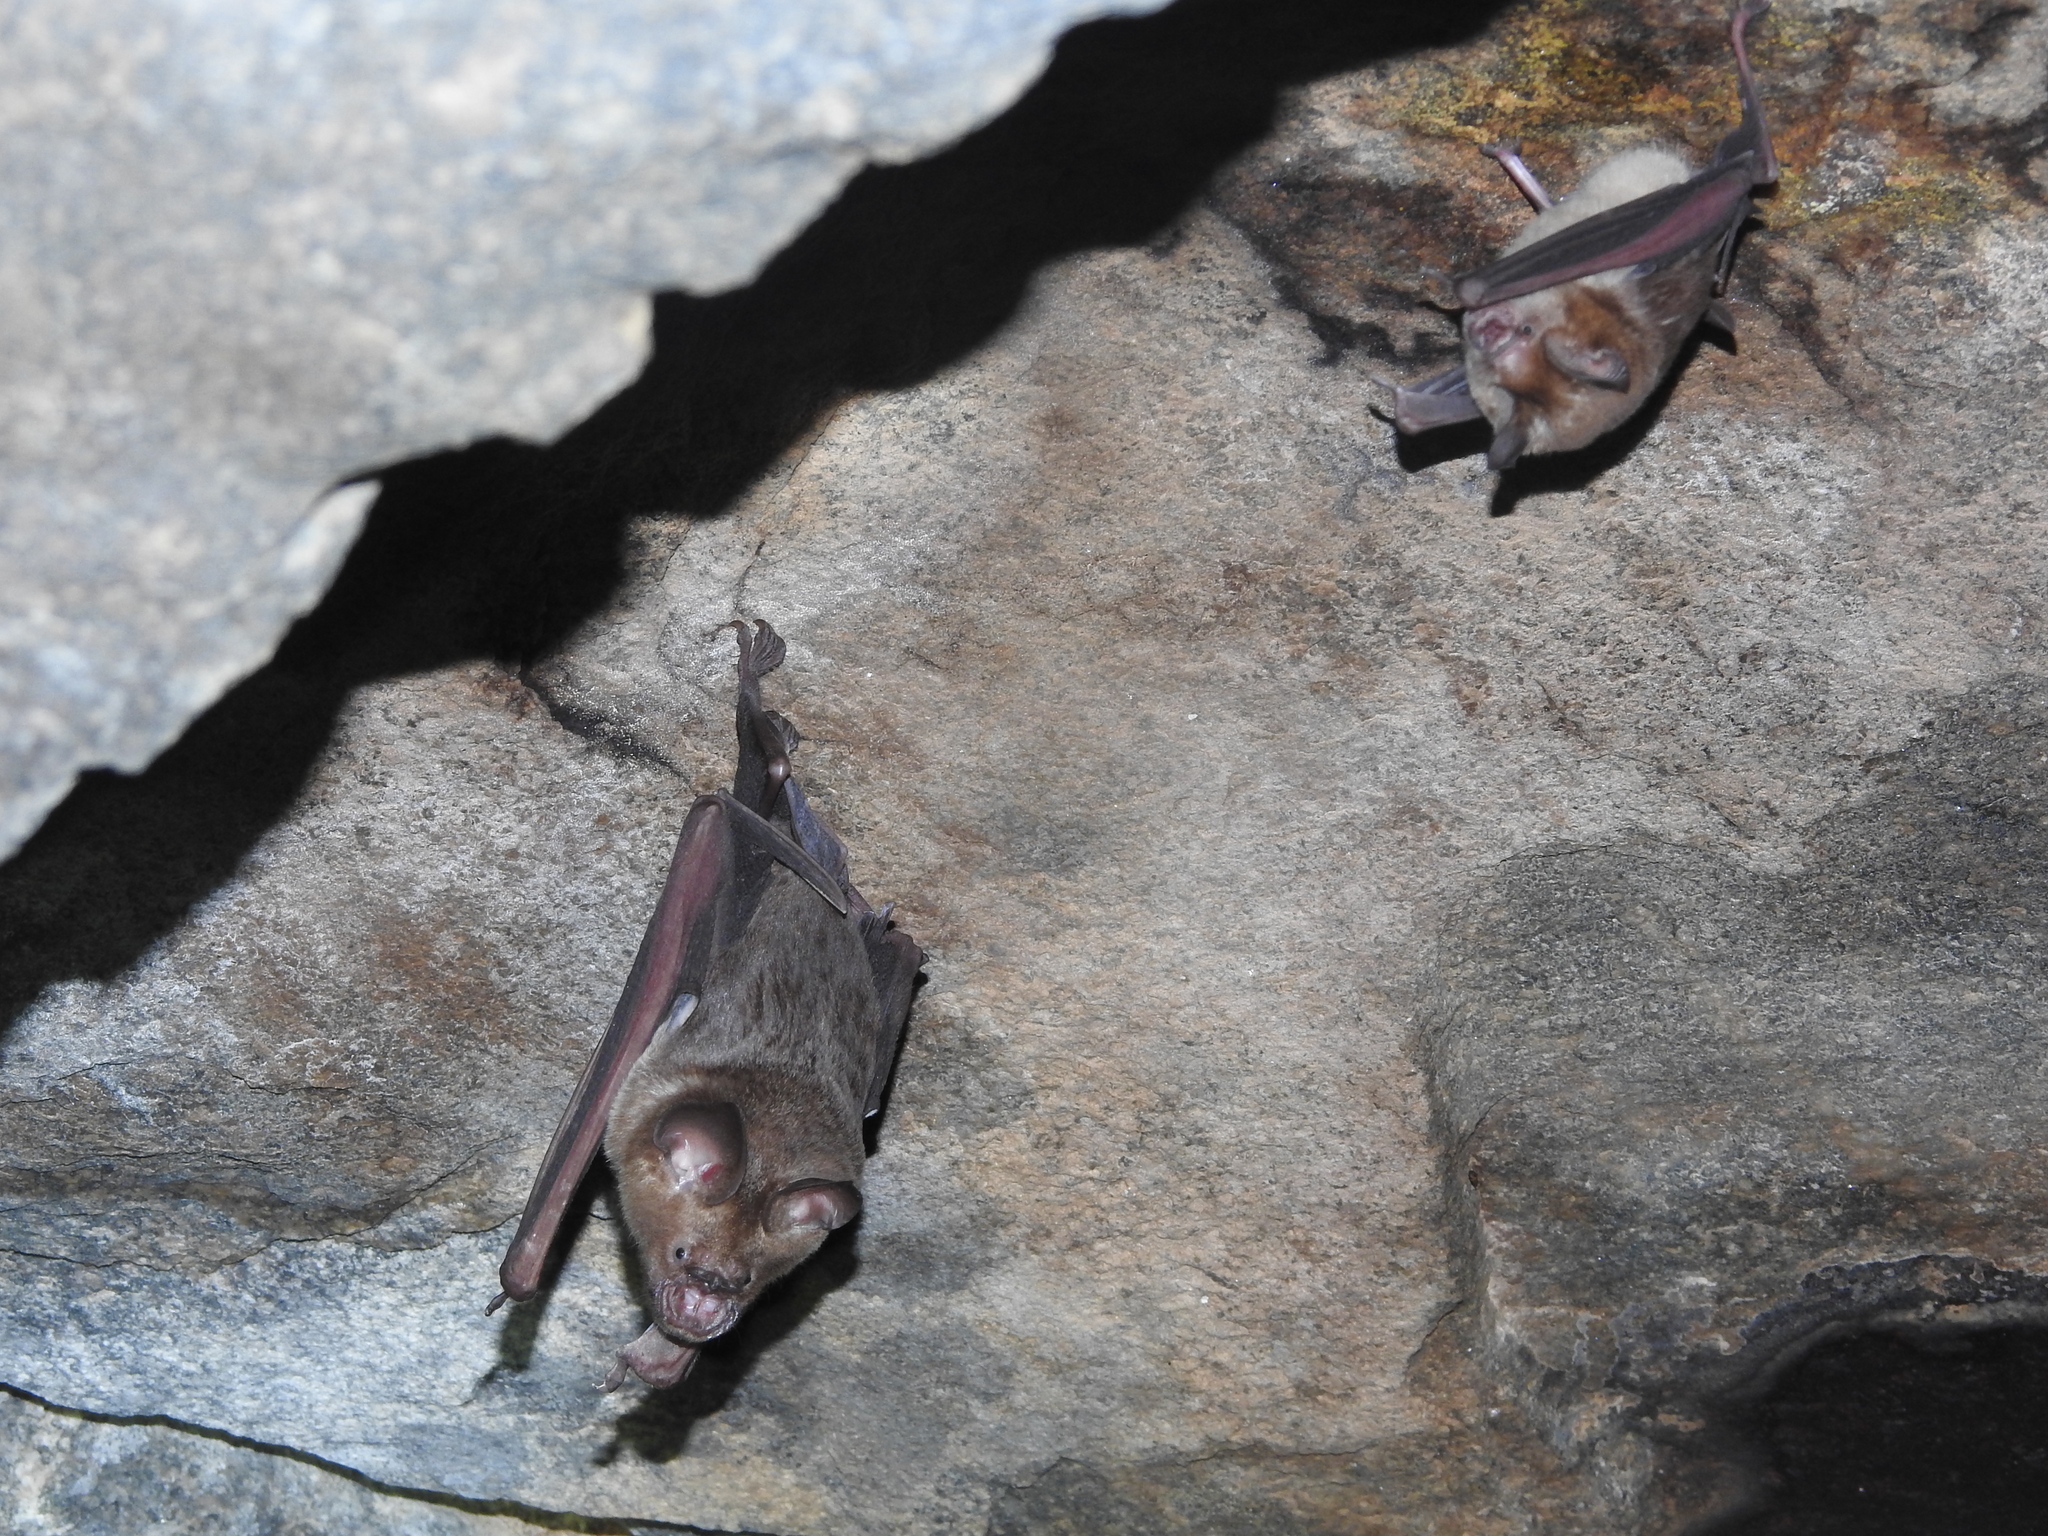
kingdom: Animalia
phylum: Chordata
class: Mammalia
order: Chiroptera
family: Hipposideridae
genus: Hipposideros
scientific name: Hipposideros lankadiva
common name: Indian leaf-nosed bat
